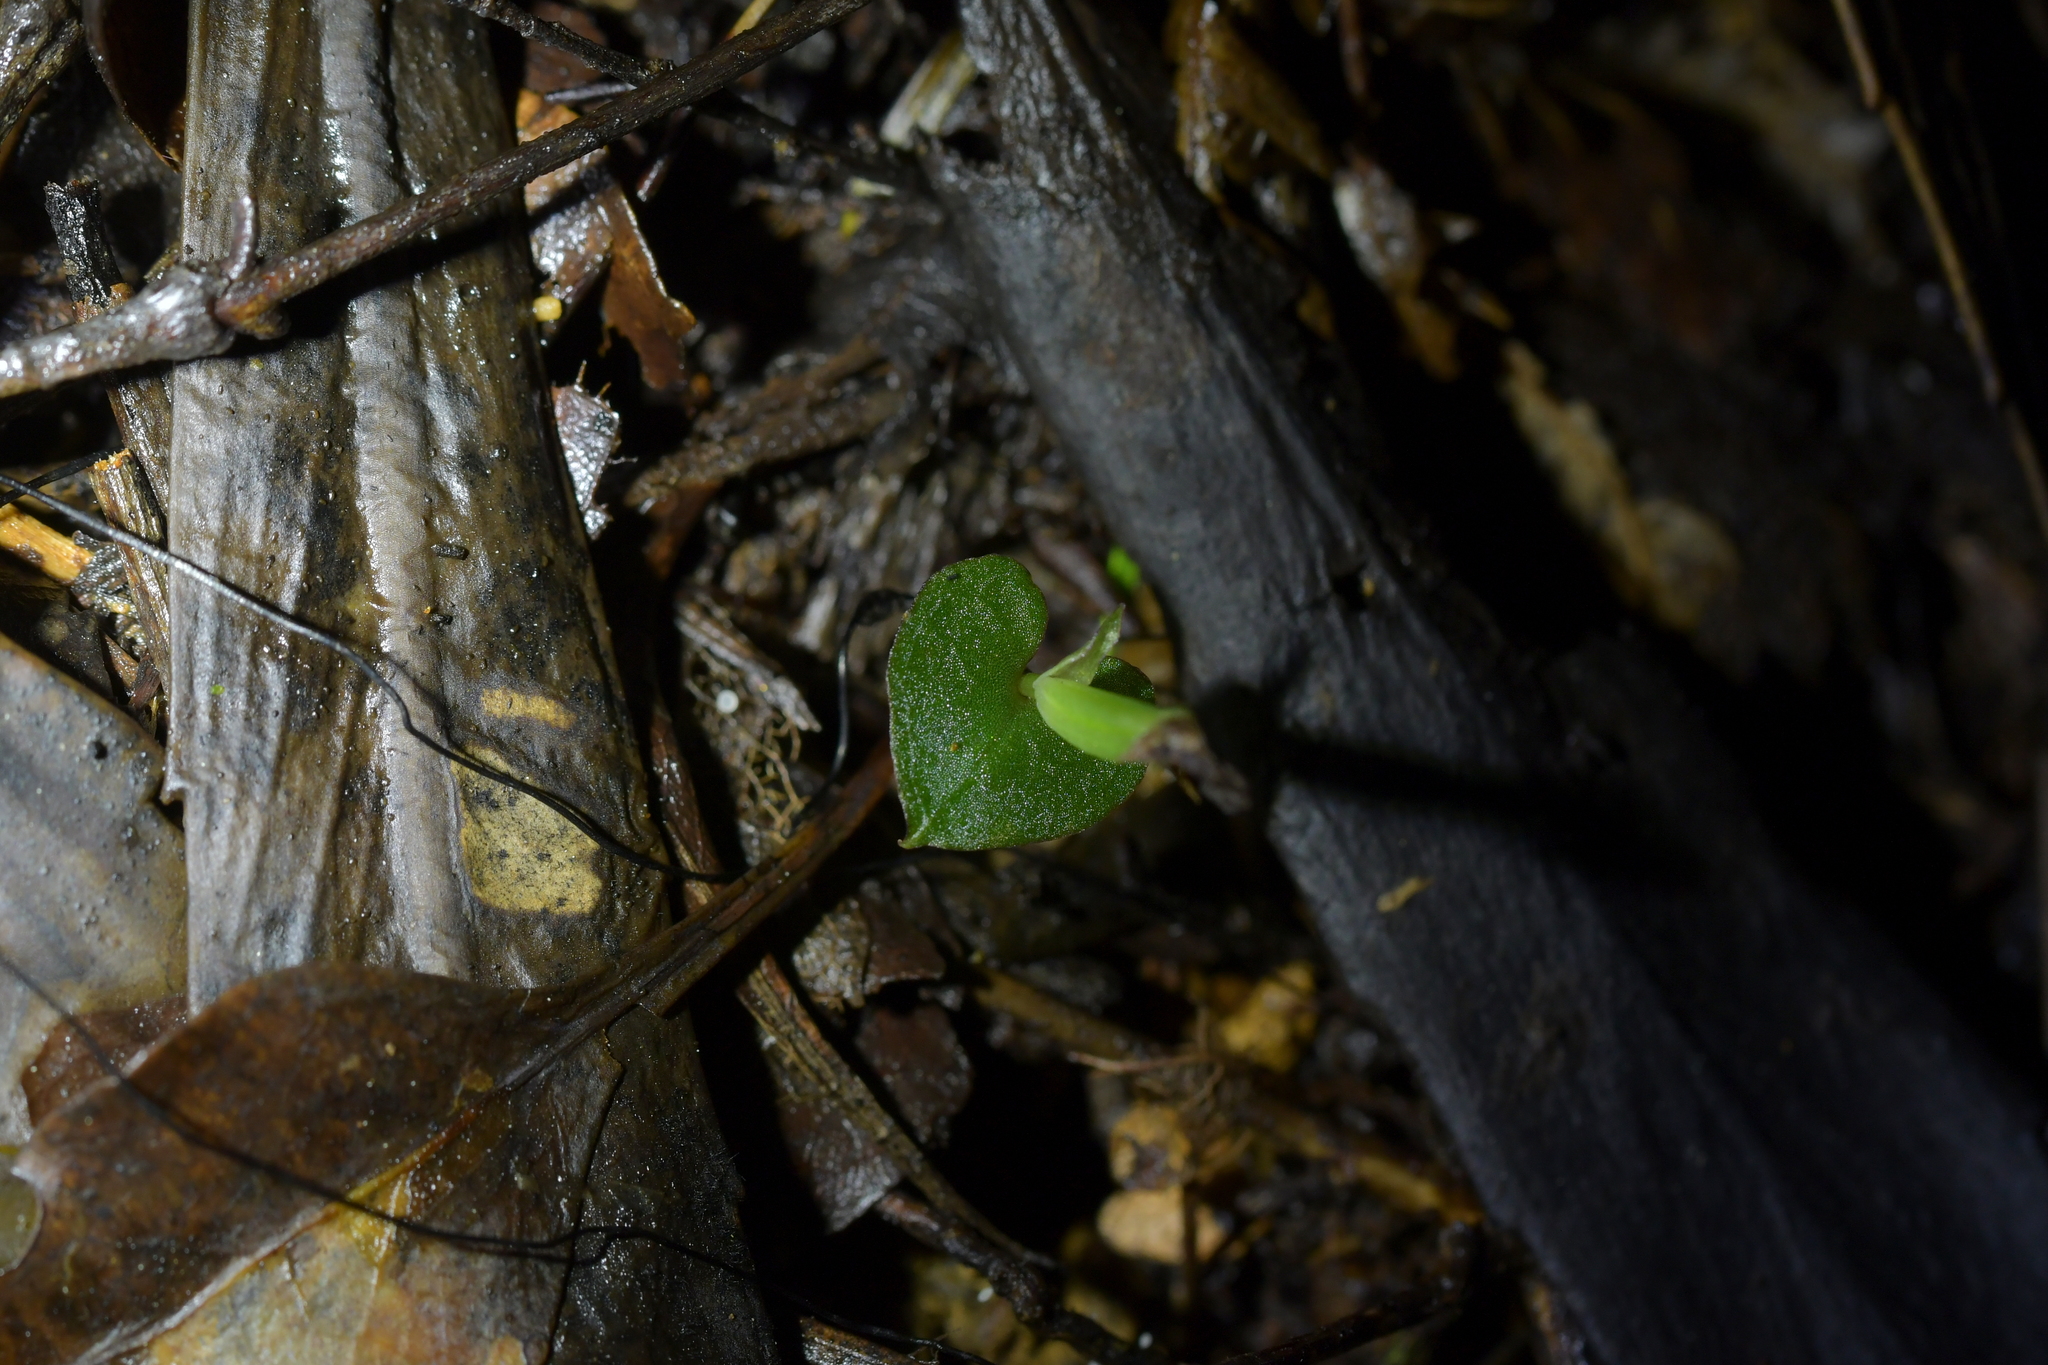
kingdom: Plantae
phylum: Tracheophyta
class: Liliopsida
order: Asparagales
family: Orchidaceae
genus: Corybas
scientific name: Corybas cheesemanii
